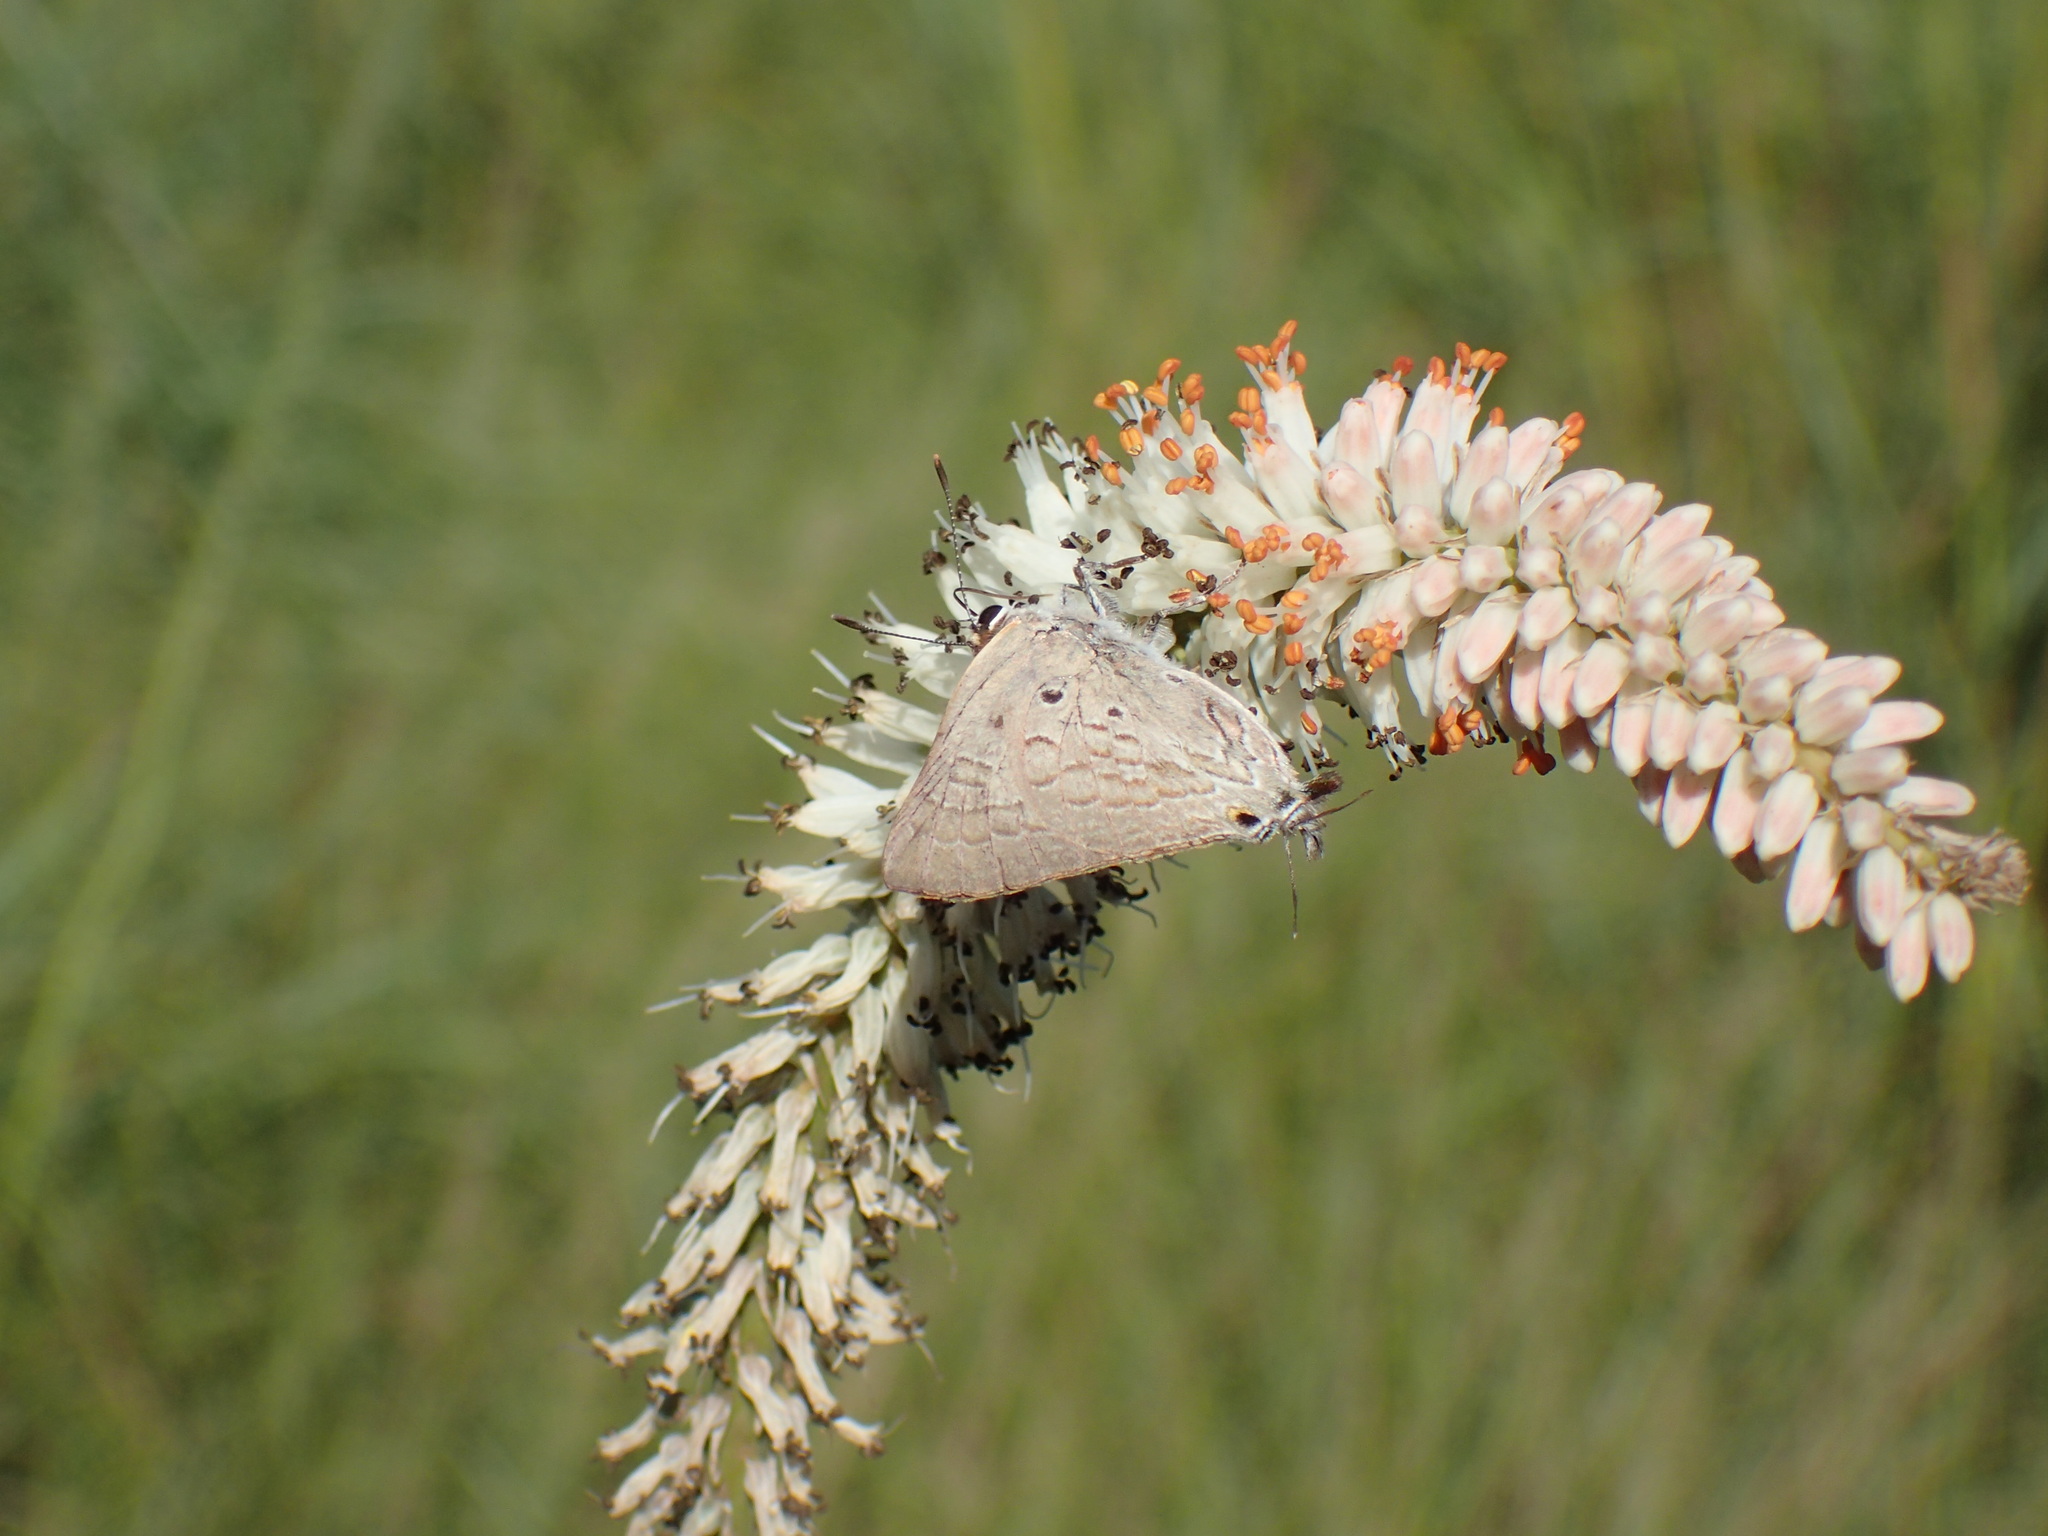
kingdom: Animalia
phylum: Arthropoda
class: Insecta
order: Lepidoptera
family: Lycaenidae
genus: Deudorix
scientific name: Deudorix antalus
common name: Brown playboy
